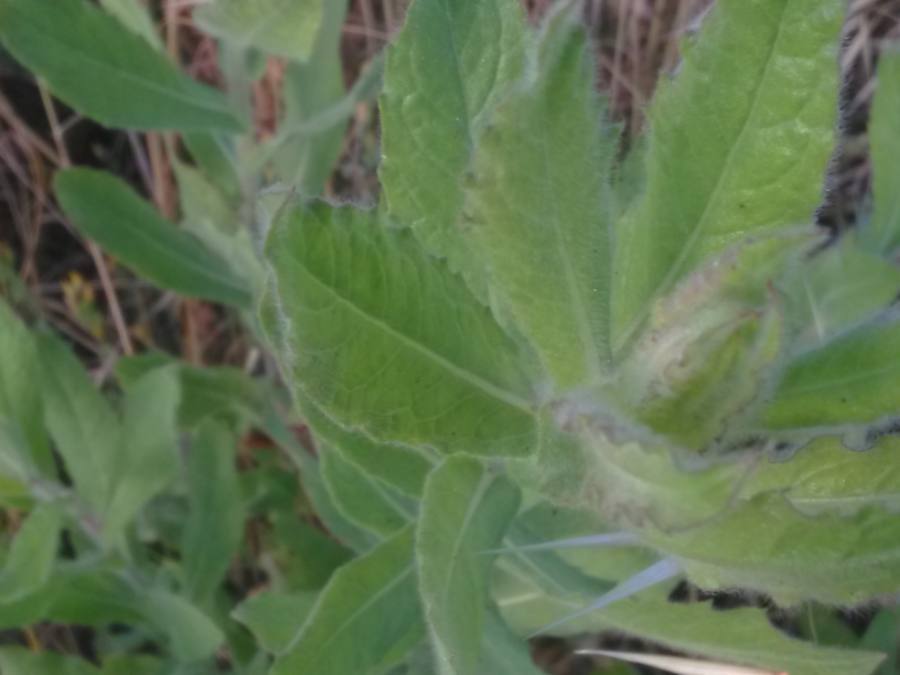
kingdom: Plantae
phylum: Tracheophyta
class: Magnoliopsida
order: Asterales
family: Asteraceae
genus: Dittrichia
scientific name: Dittrichia viscosa
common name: Woody fleabane
